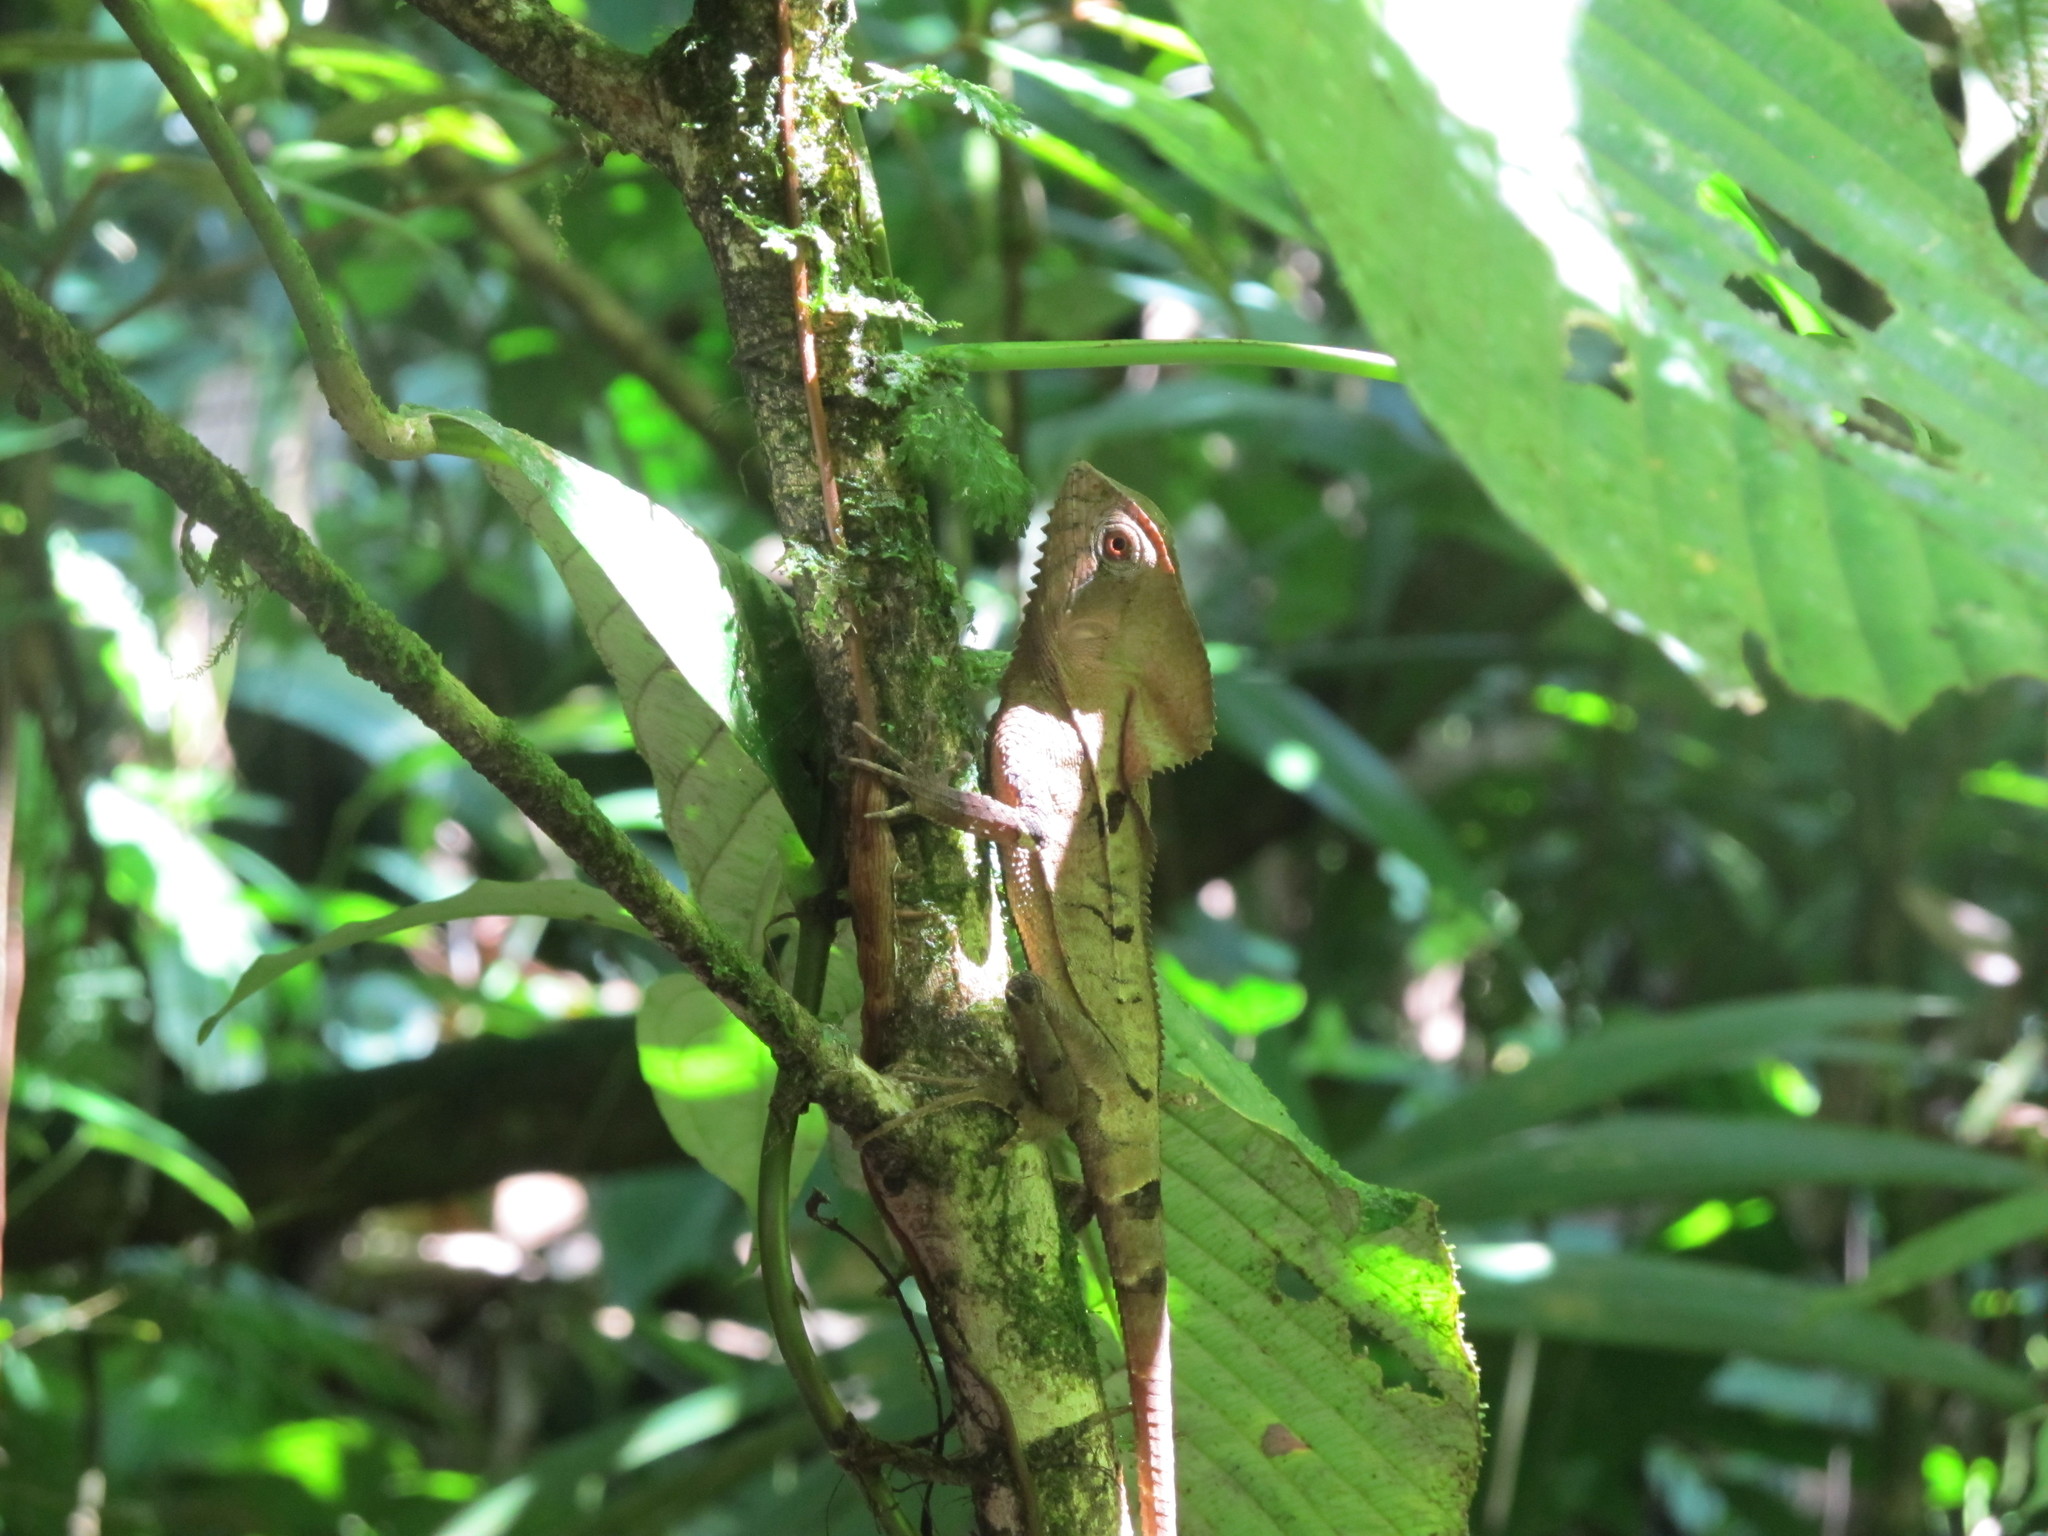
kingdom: Animalia
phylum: Chordata
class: Squamata
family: Corytophanidae
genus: Corytophanes
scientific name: Corytophanes cristatus
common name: Smooth helmeted iguana
